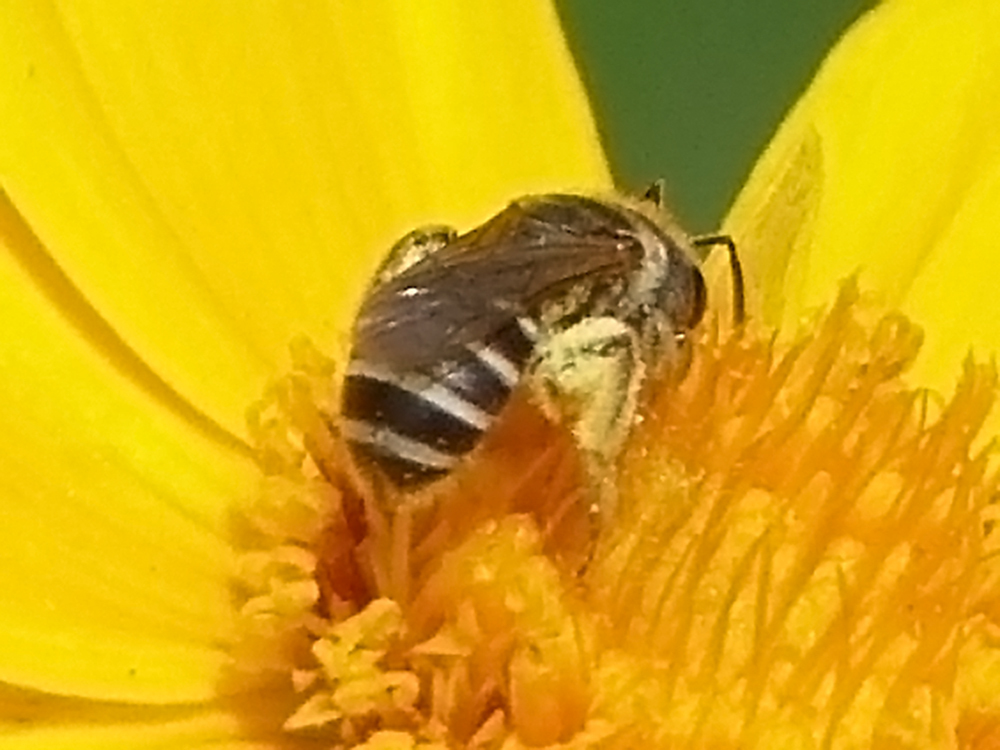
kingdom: Animalia
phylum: Arthropoda
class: Insecta
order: Hymenoptera
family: Halictidae
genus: Halictus
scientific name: Halictus ligatus
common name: Ligated furrow bee
